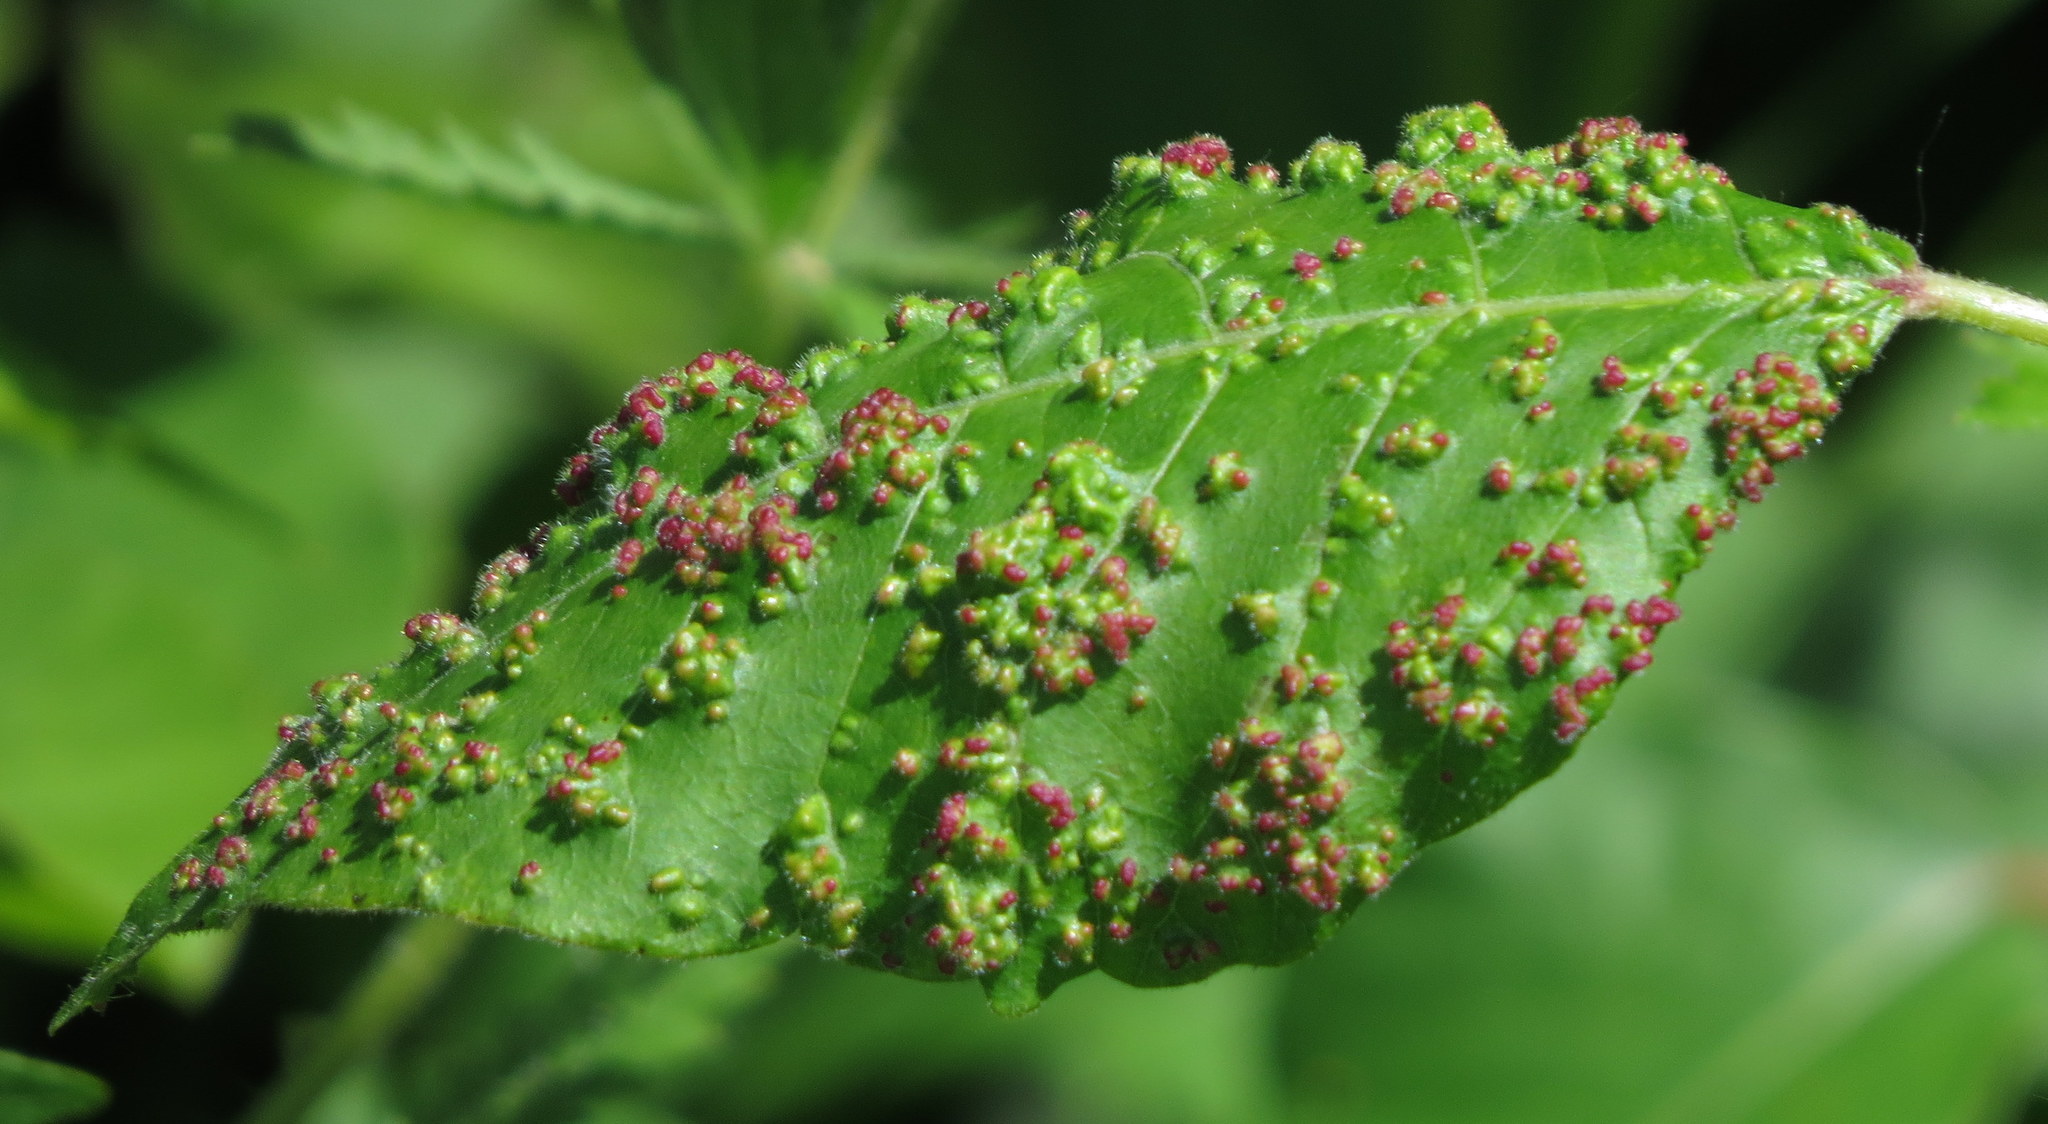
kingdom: Animalia
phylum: Arthropoda
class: Arachnida
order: Trombidiformes
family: Eriophyidae
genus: Aculops
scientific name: Aculops
